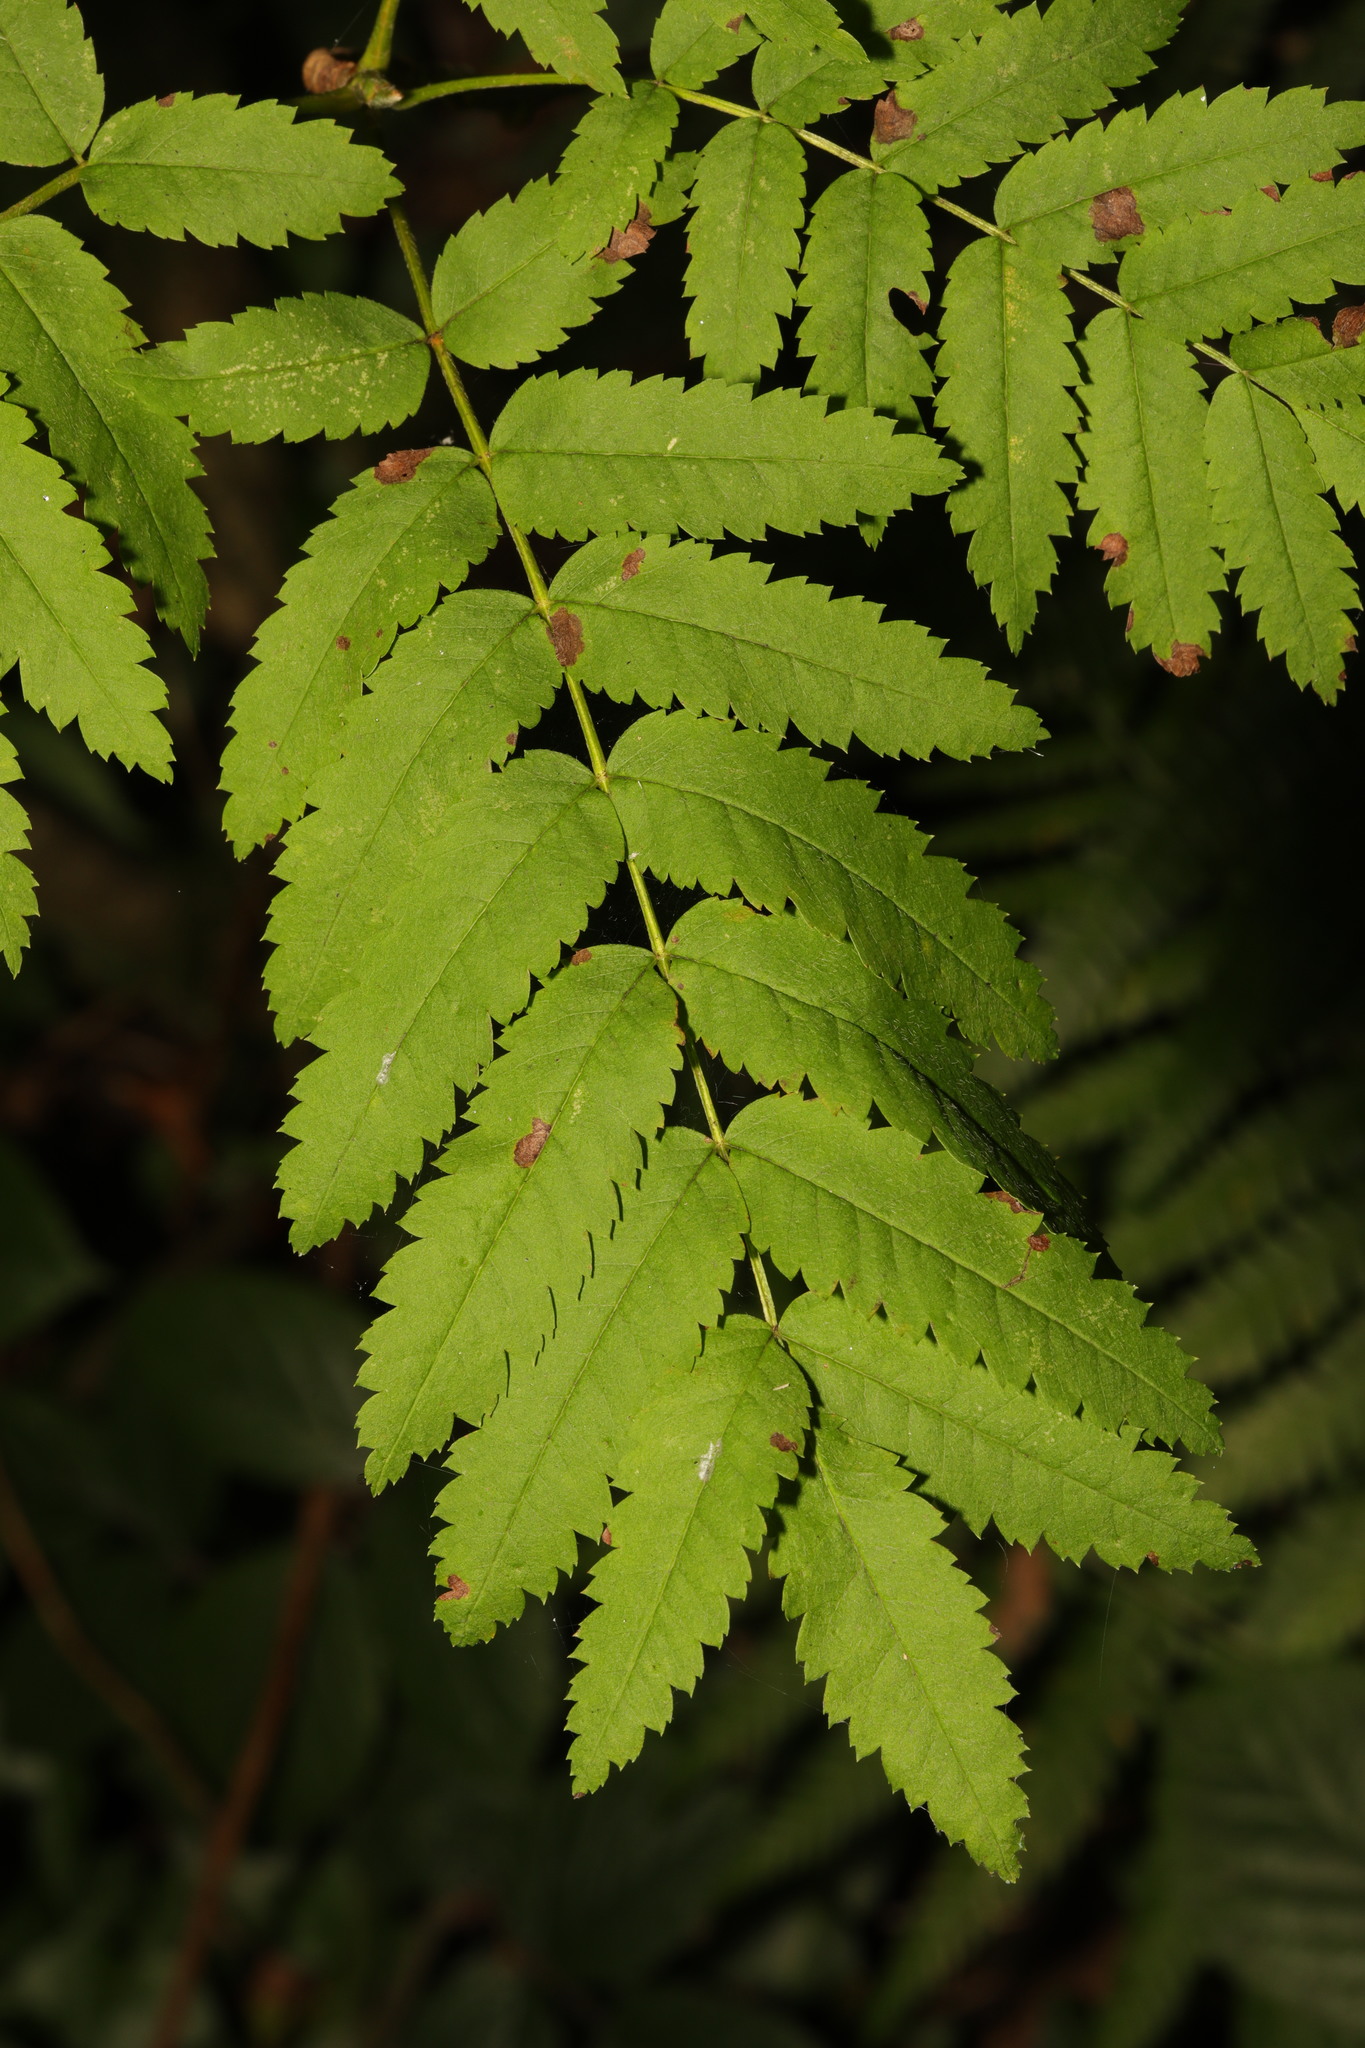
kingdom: Plantae
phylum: Tracheophyta
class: Magnoliopsida
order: Rosales
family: Rosaceae
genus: Sorbus
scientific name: Sorbus aucuparia
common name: Rowan
